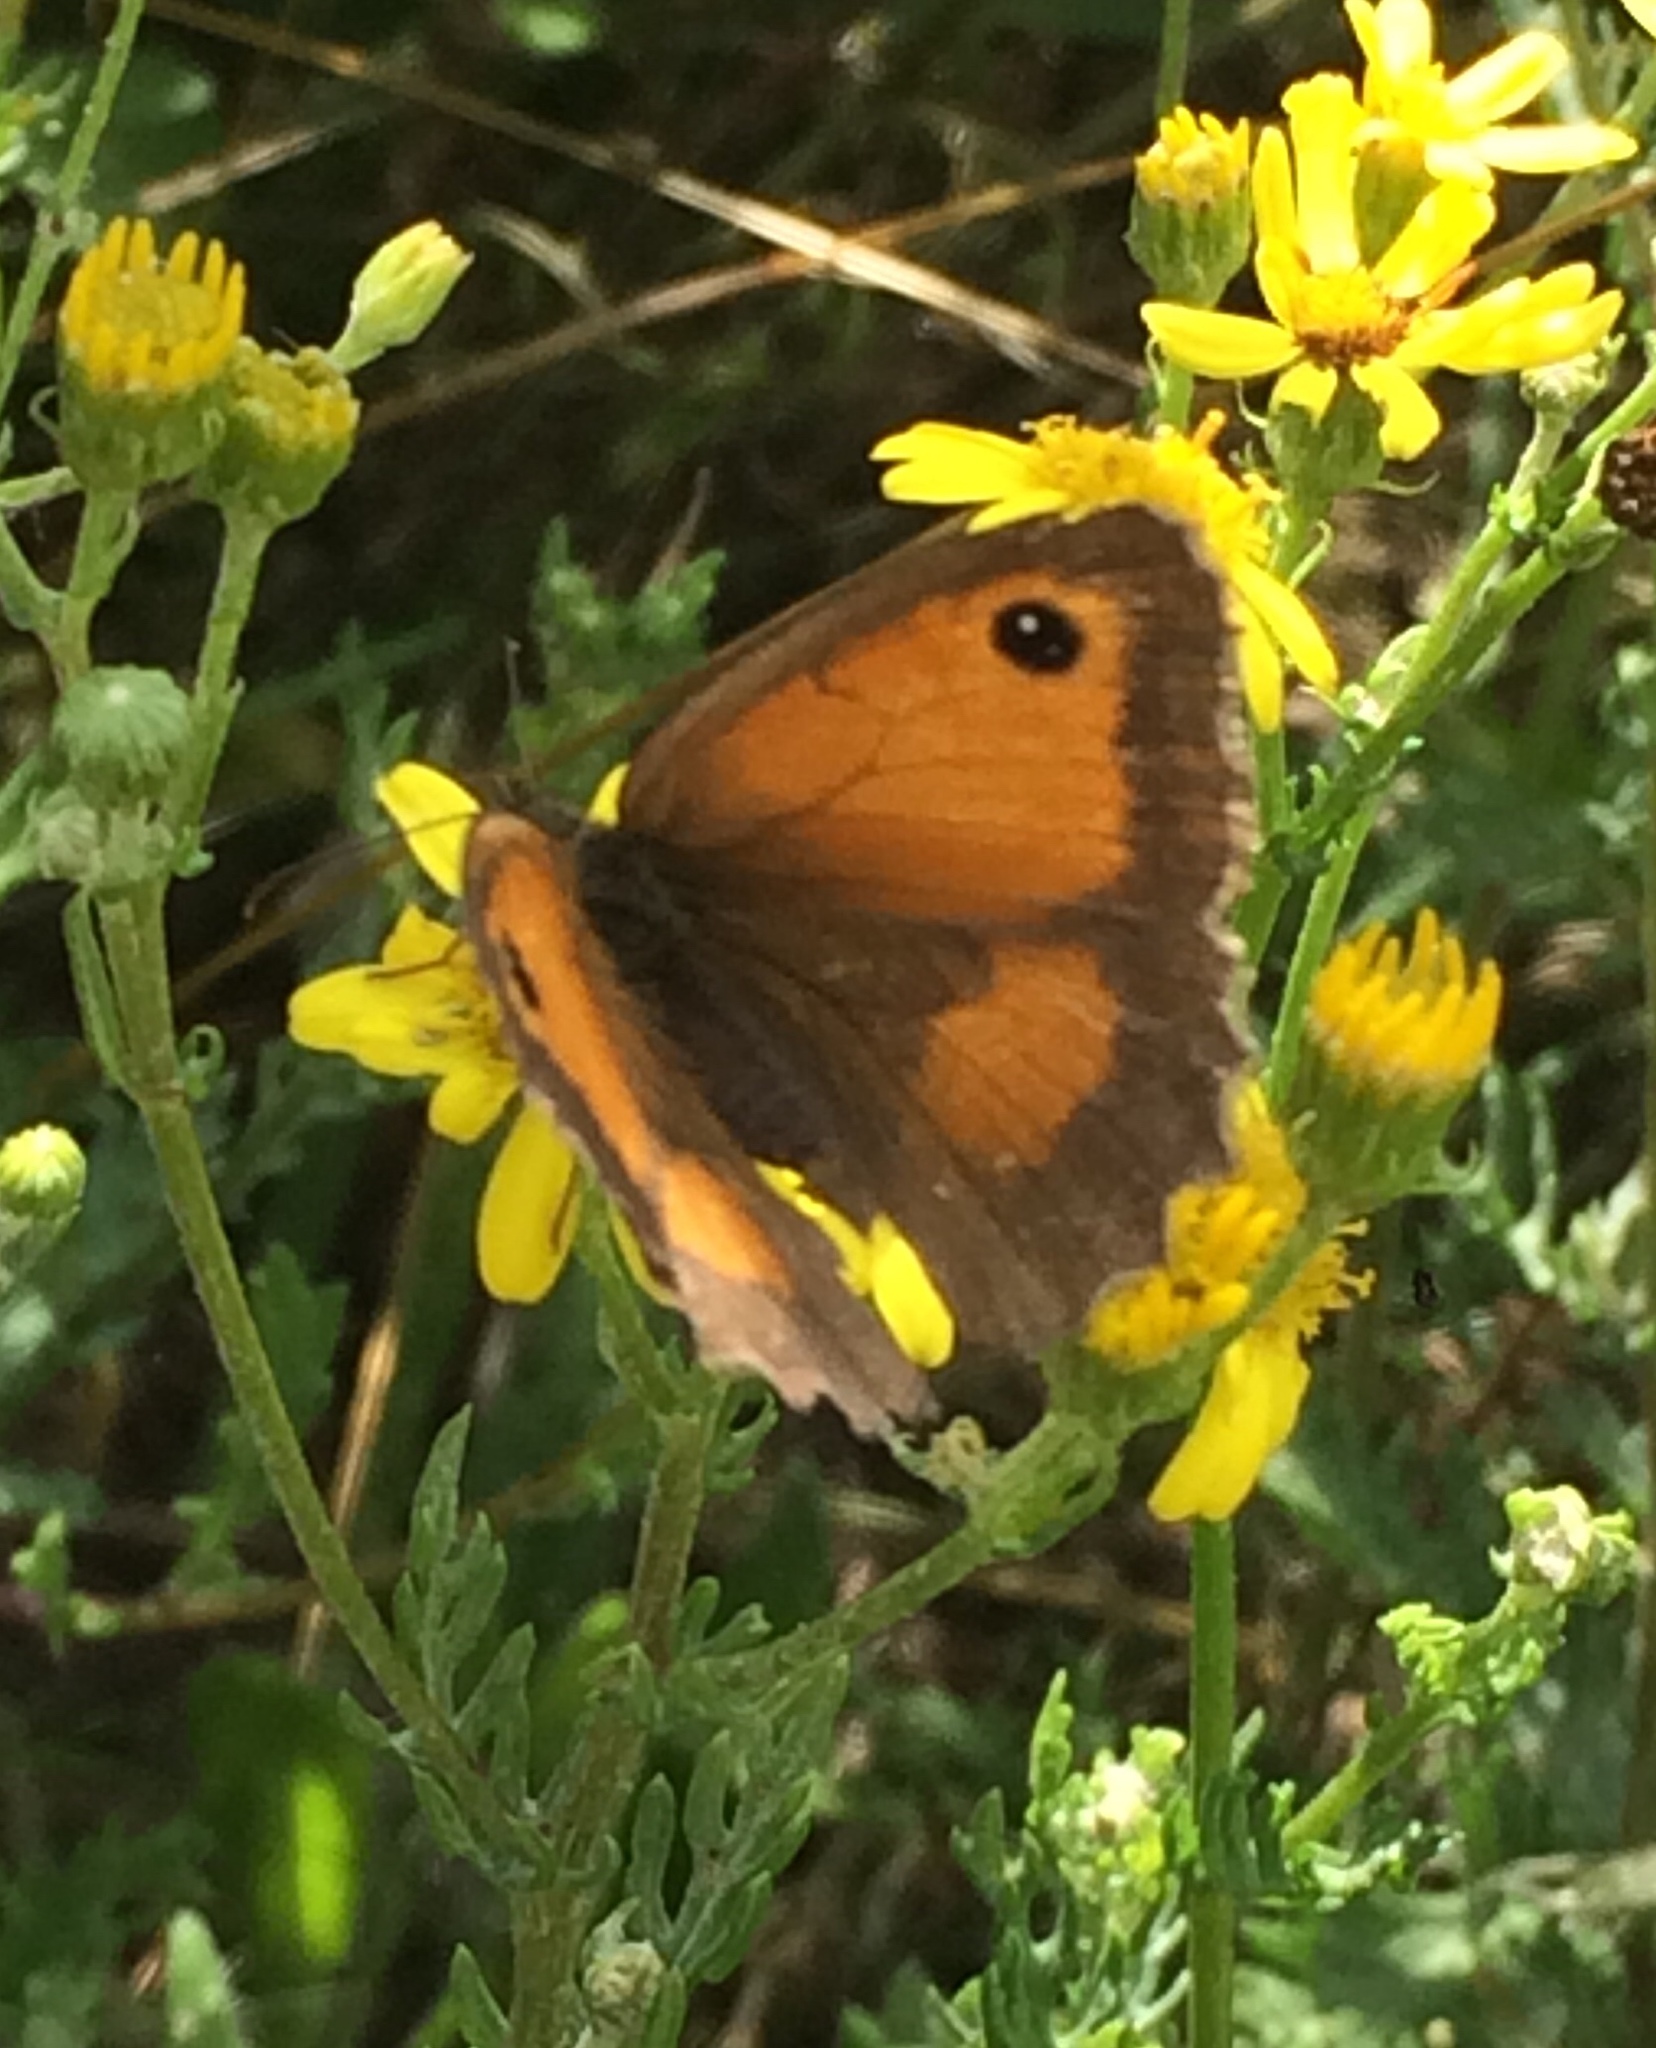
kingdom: Animalia
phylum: Arthropoda
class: Insecta
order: Lepidoptera
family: Nymphalidae
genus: Pyronia
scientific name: Pyronia tithonus
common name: Gatekeeper
